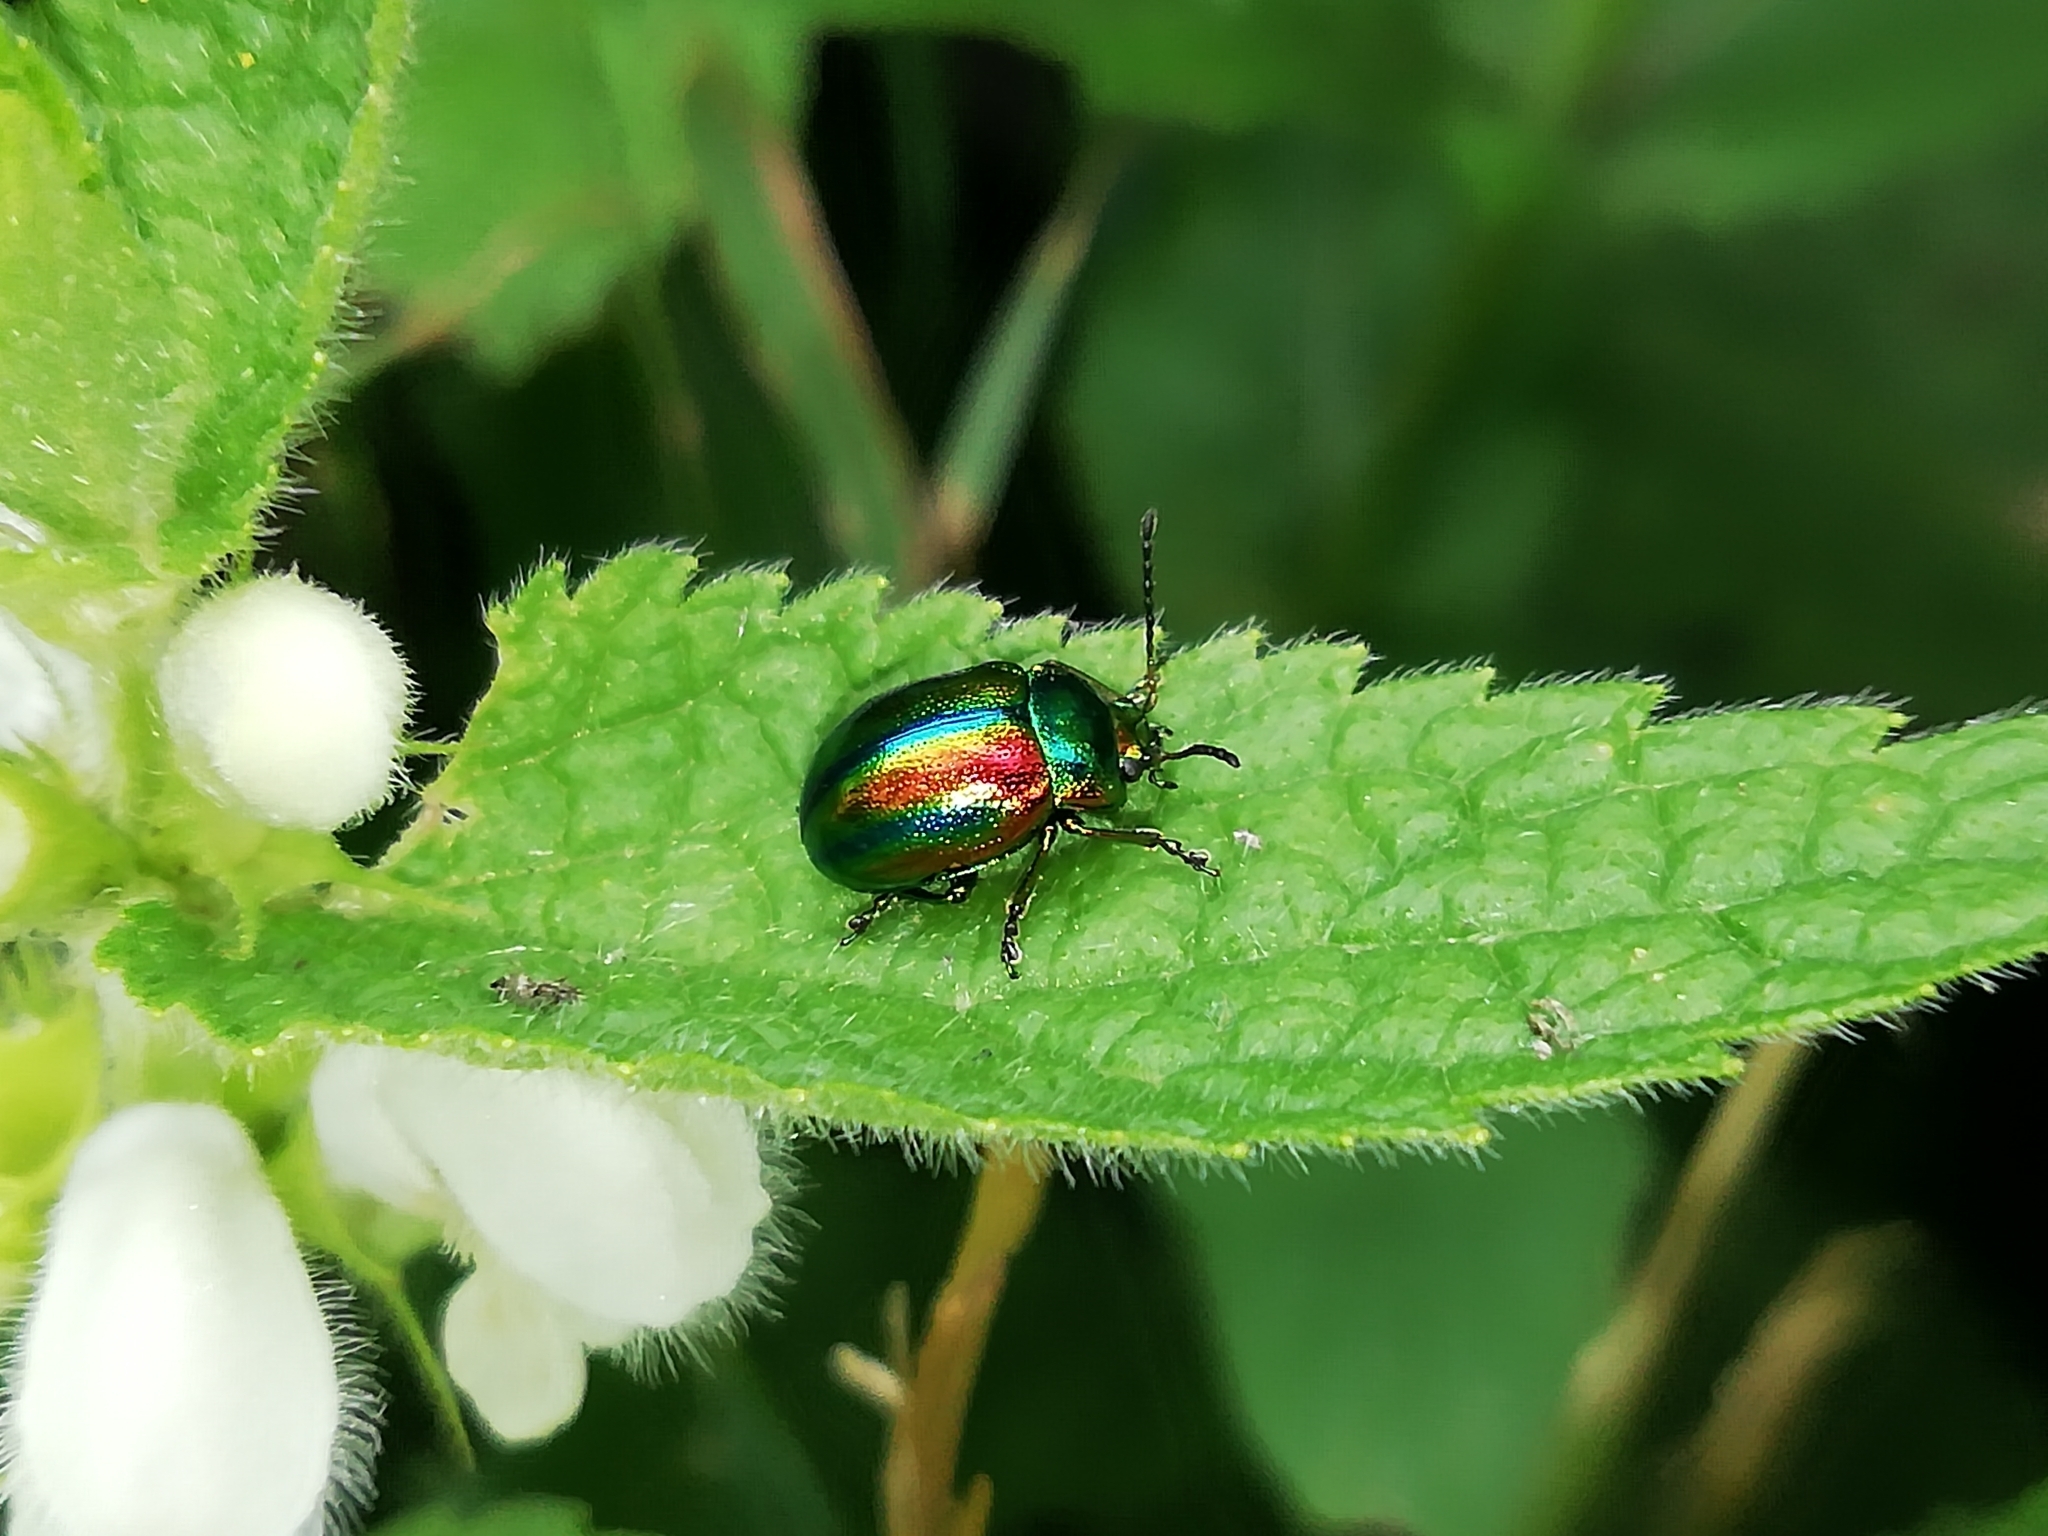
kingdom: Animalia
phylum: Arthropoda
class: Insecta
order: Coleoptera
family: Chrysomelidae
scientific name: Chrysomelidae
